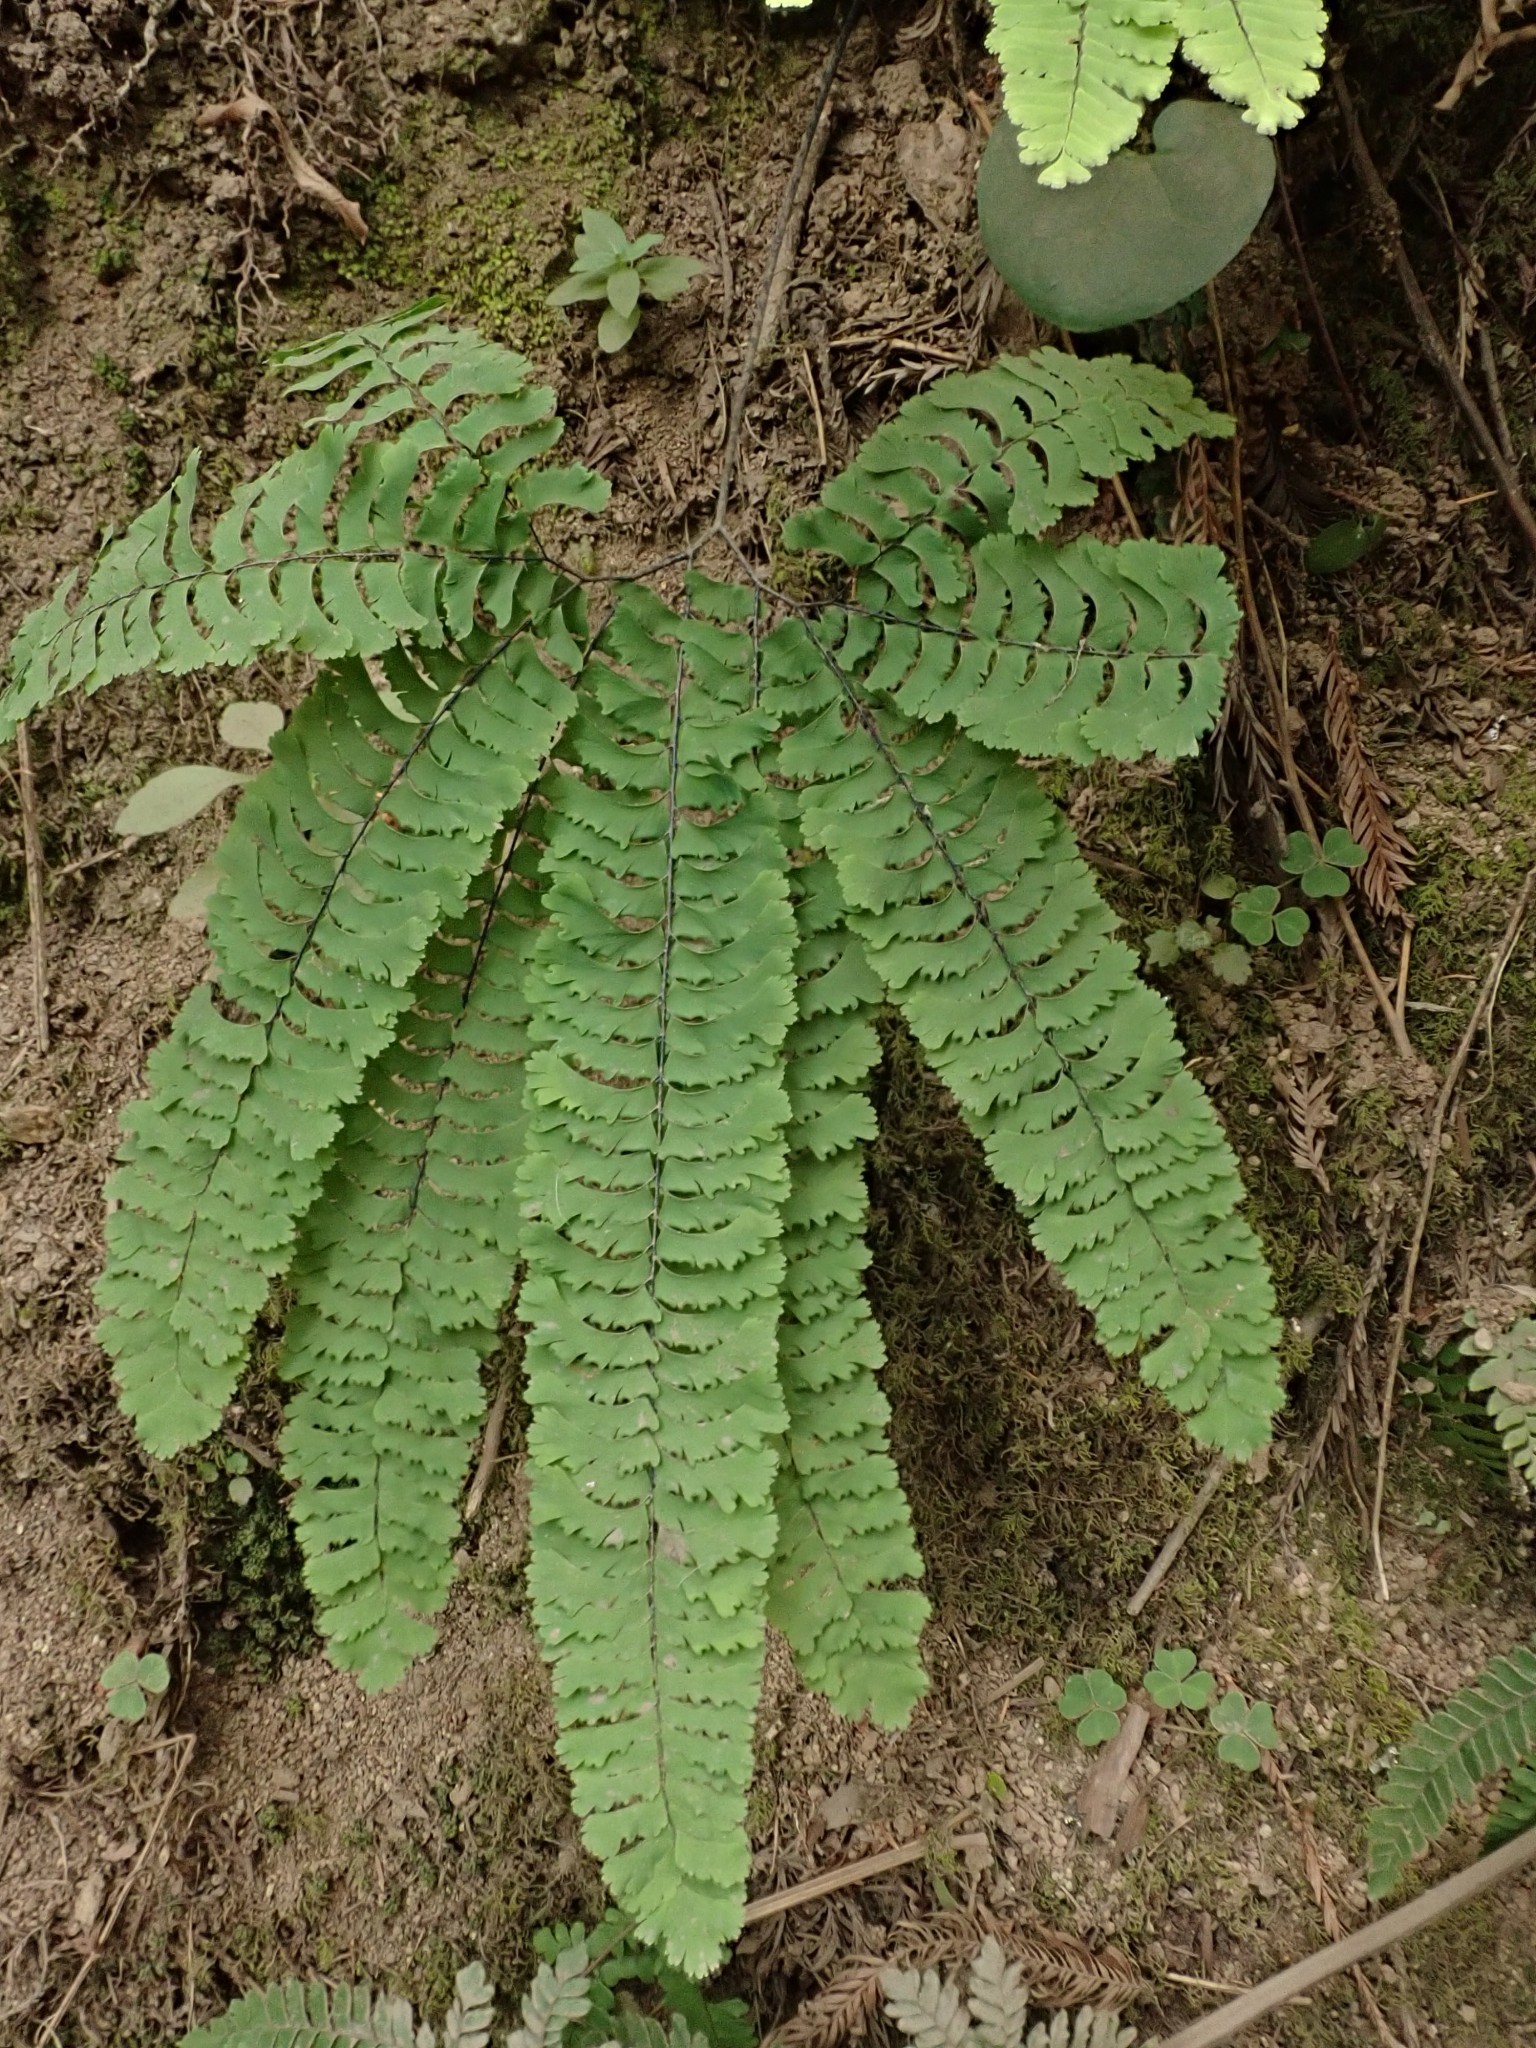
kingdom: Plantae
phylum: Tracheophyta
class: Polypodiopsida
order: Polypodiales
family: Pteridaceae
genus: Adiantum
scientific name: Adiantum aleuticum
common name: Aleutian maidenhair fern
